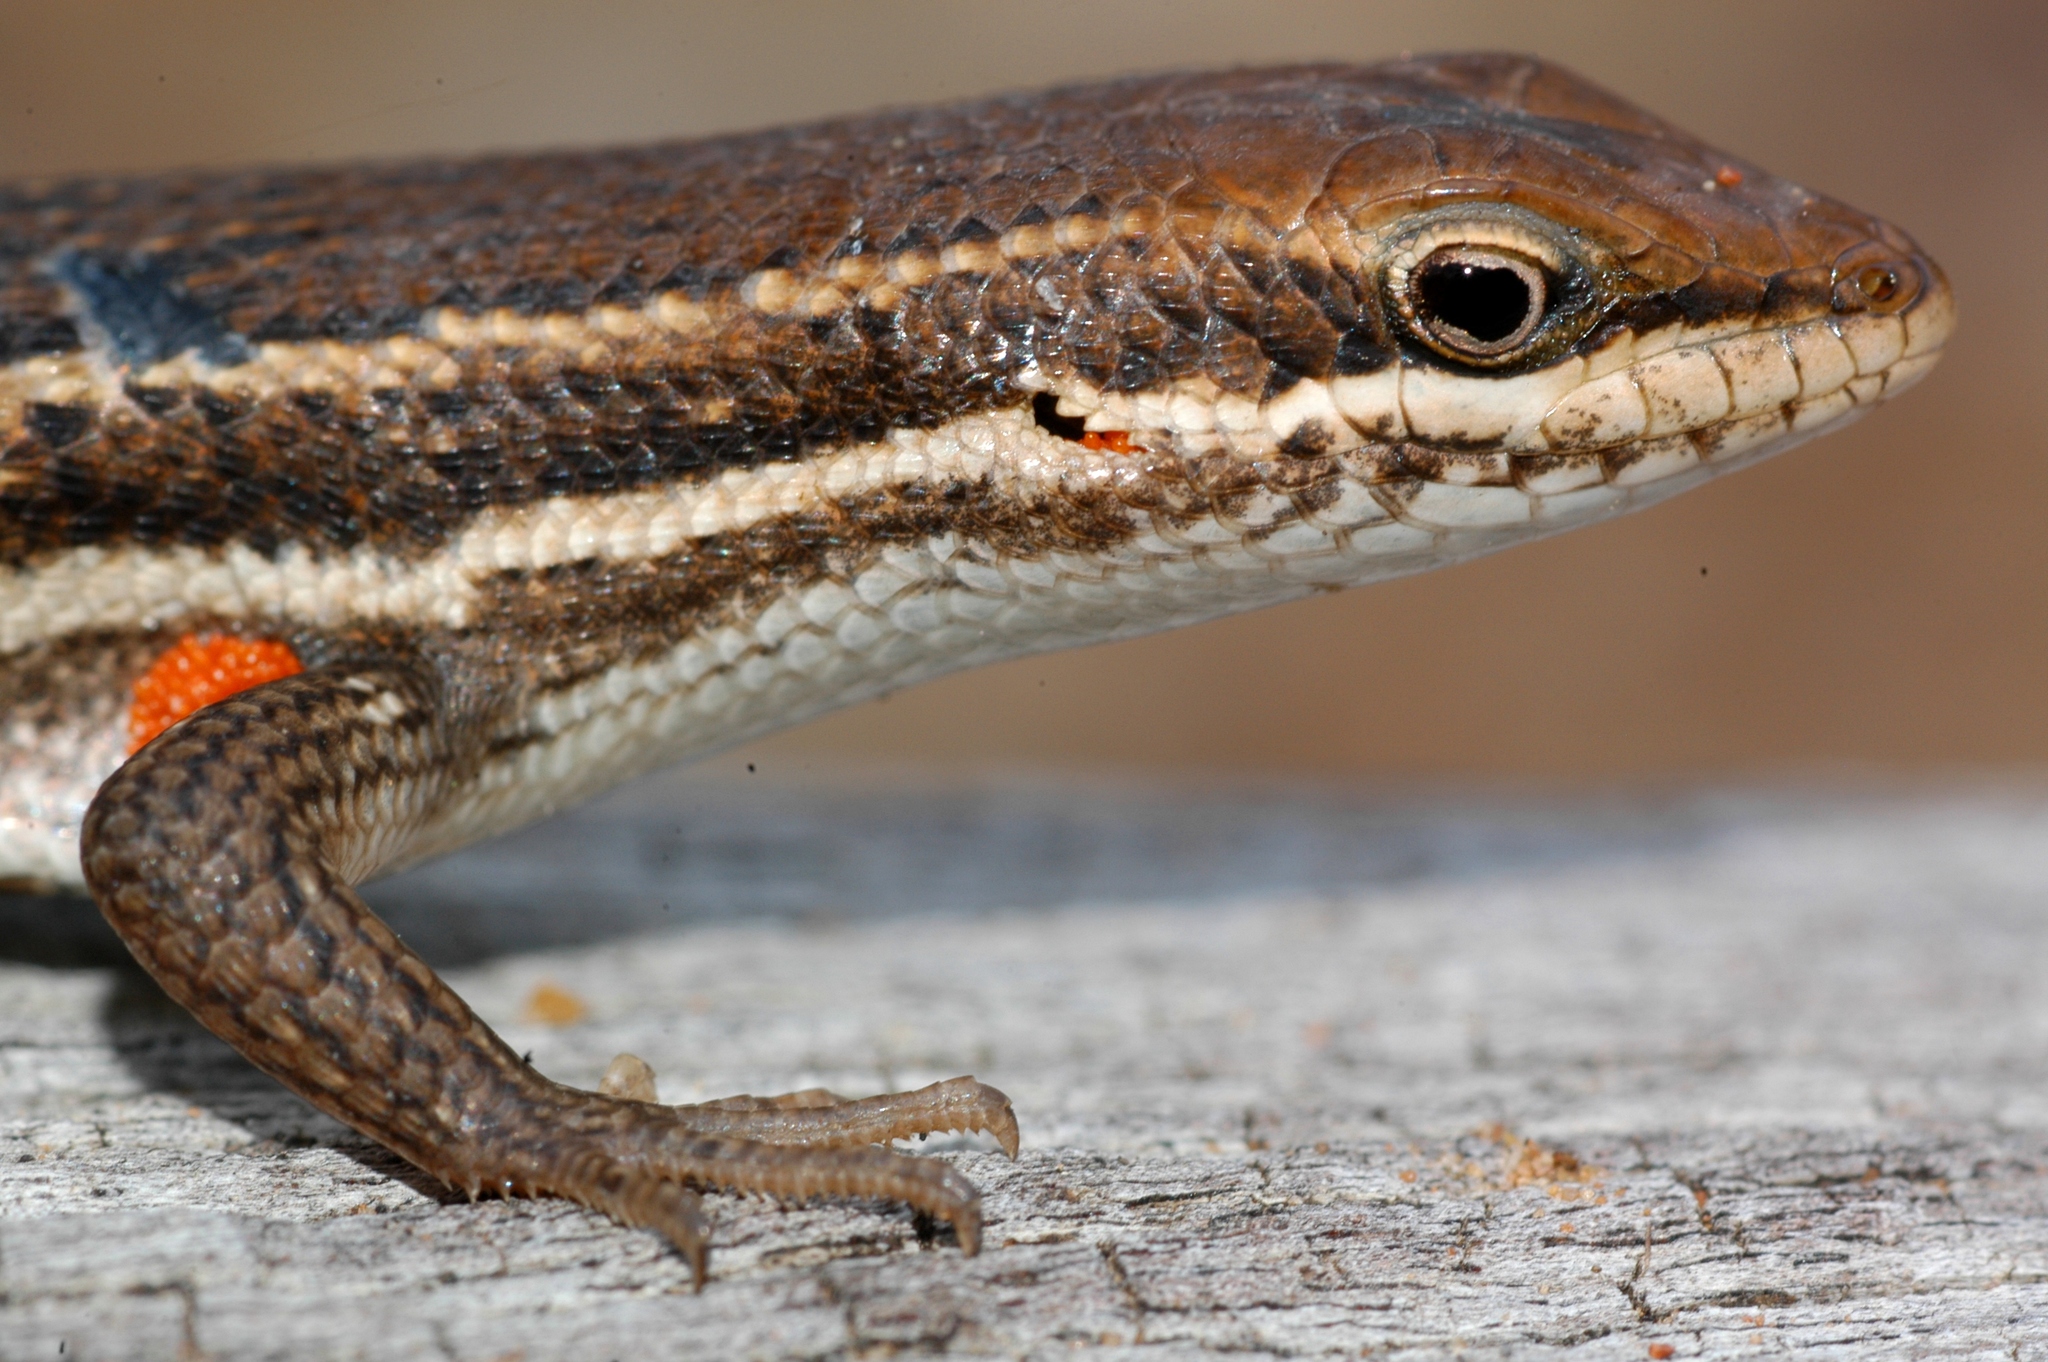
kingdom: Animalia
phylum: Chordata
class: Squamata
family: Scincidae
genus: Trachylepis
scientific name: Trachylepis varia
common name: Eastern variable skink
